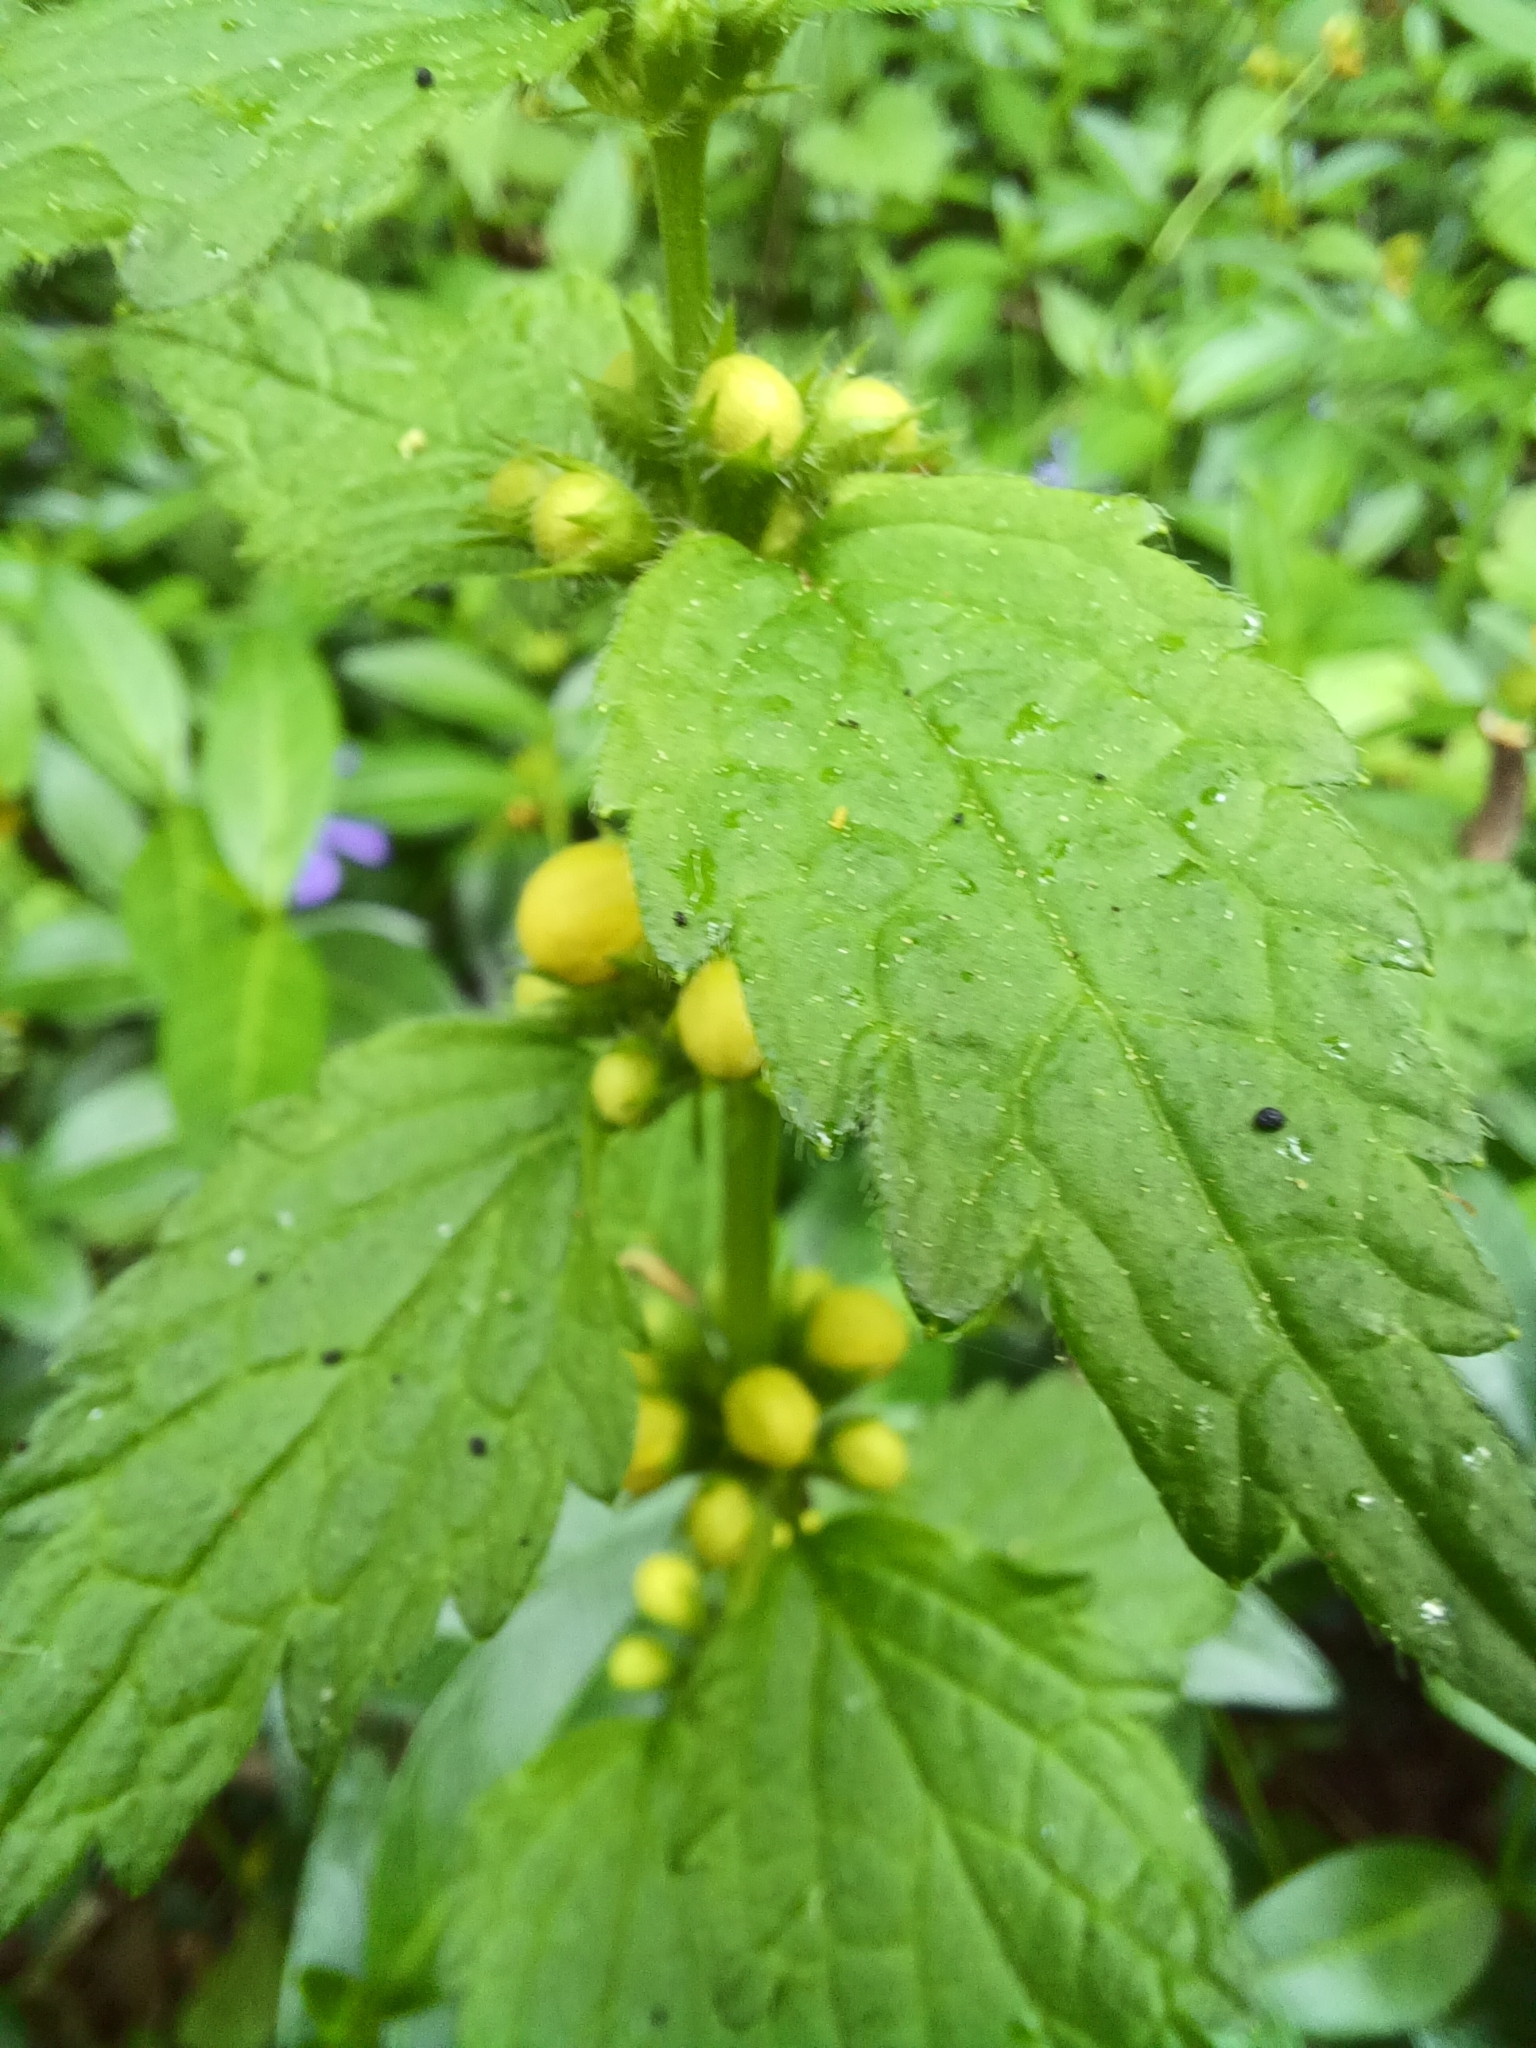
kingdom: Plantae
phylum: Tracheophyta
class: Magnoliopsida
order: Lamiales
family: Lamiaceae
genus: Lamium
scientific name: Lamium galeobdolon
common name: Yellow archangel
